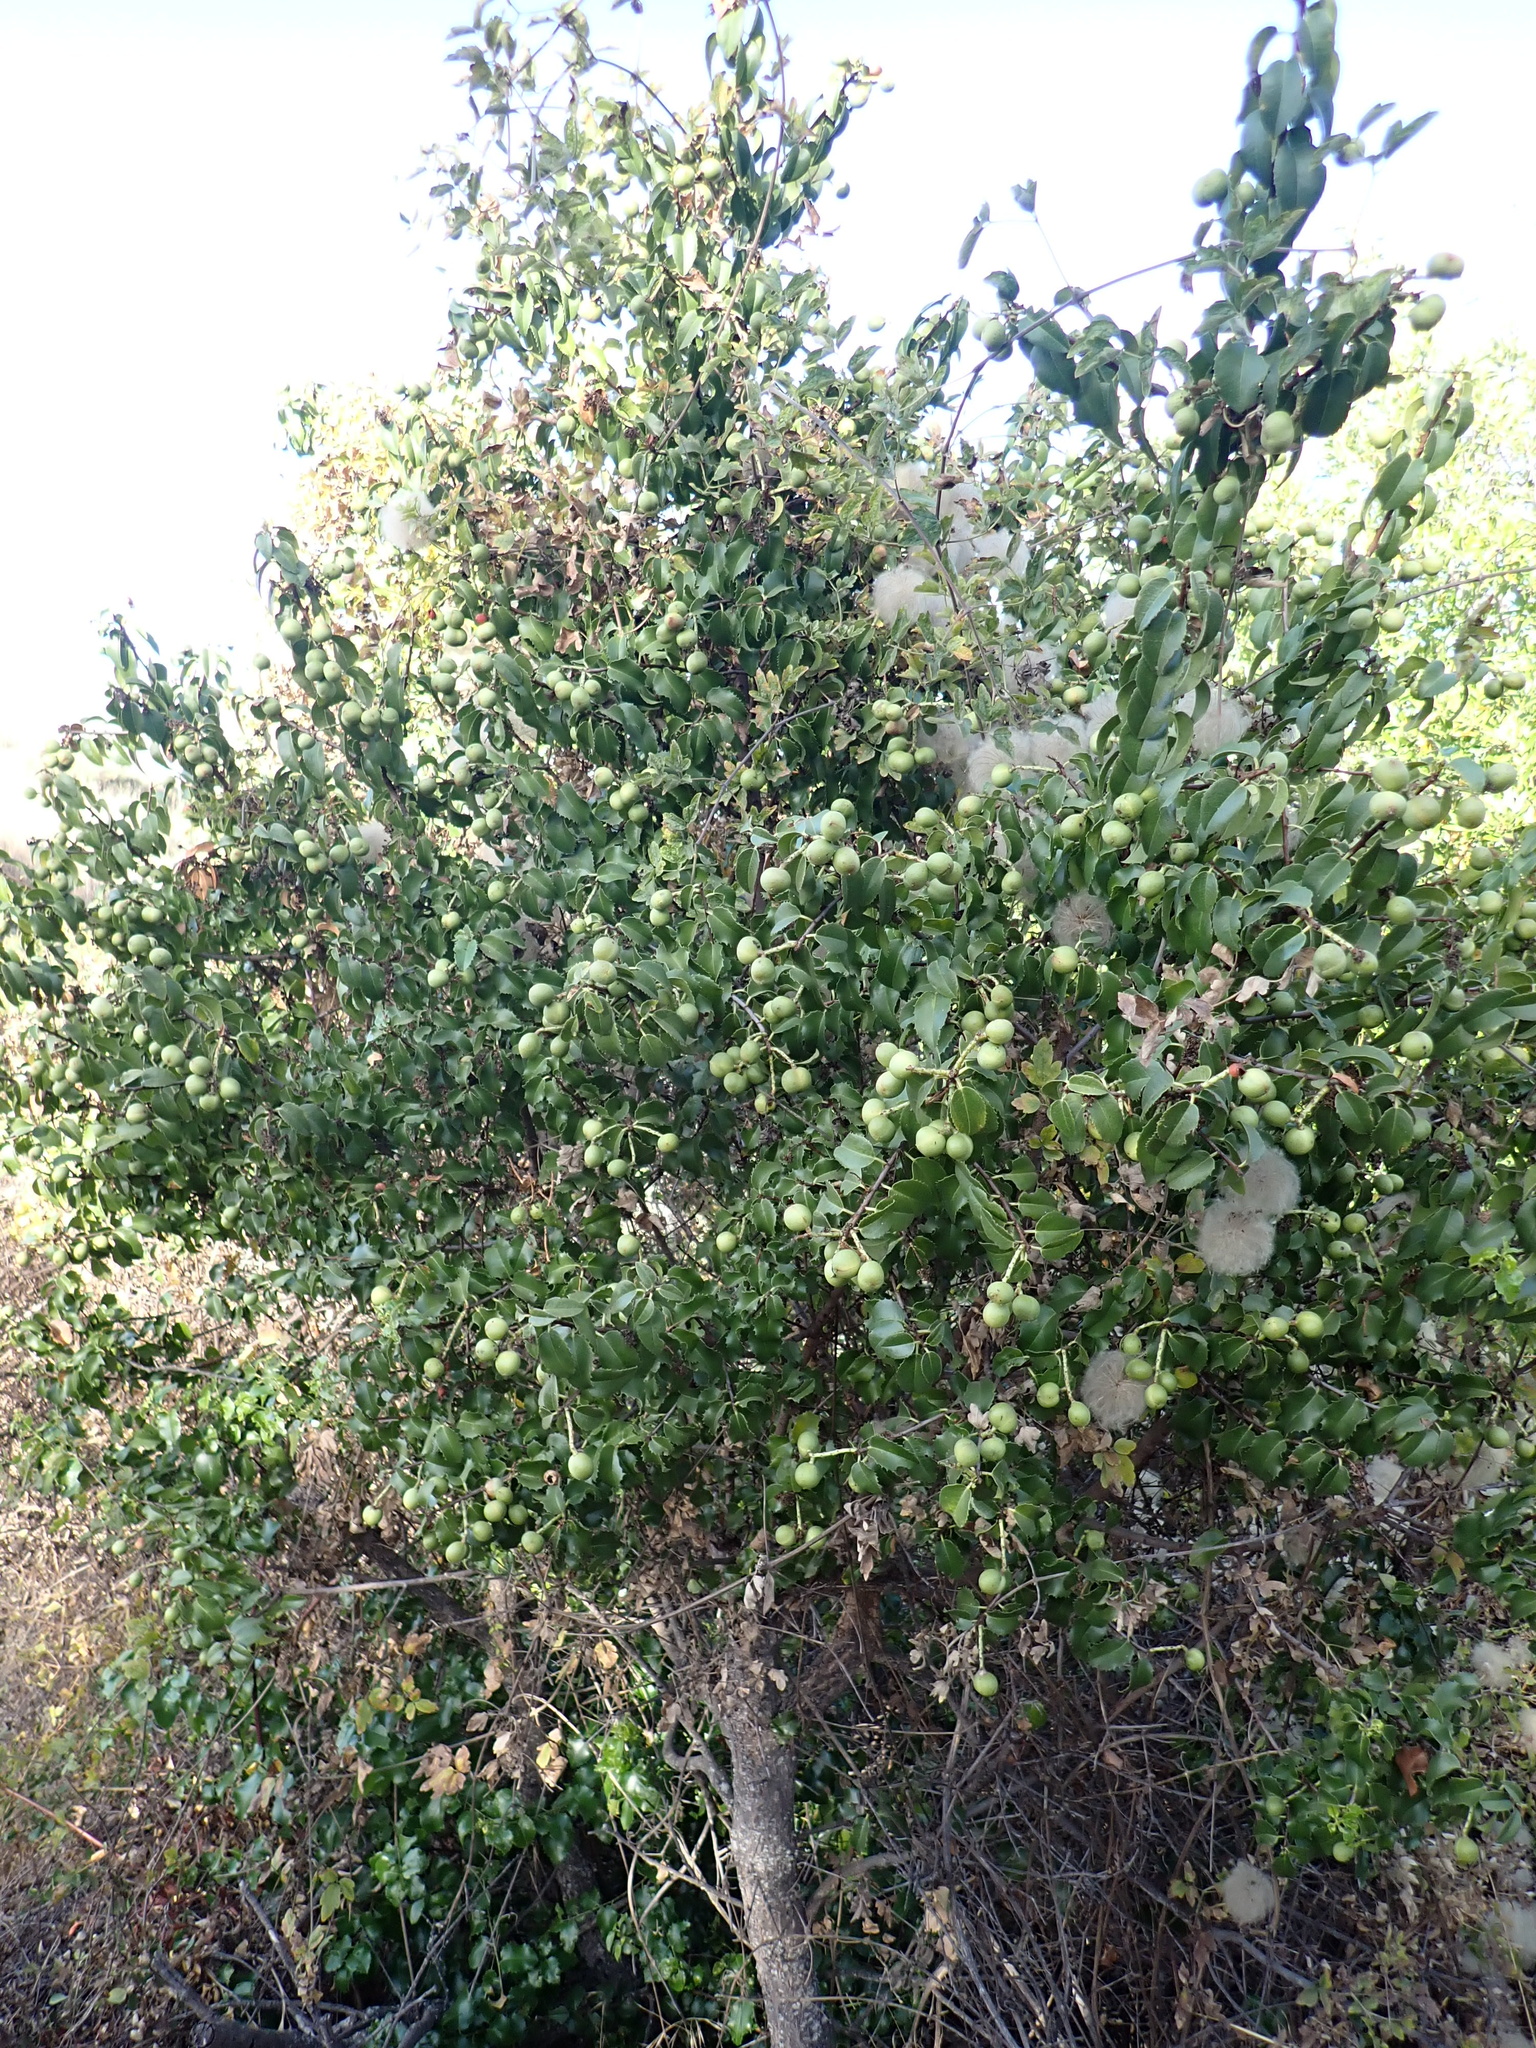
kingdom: Plantae
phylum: Tracheophyta
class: Magnoliopsida
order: Rosales
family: Rosaceae
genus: Prunus
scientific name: Prunus ilicifolia
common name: Hollyleaf cherry
